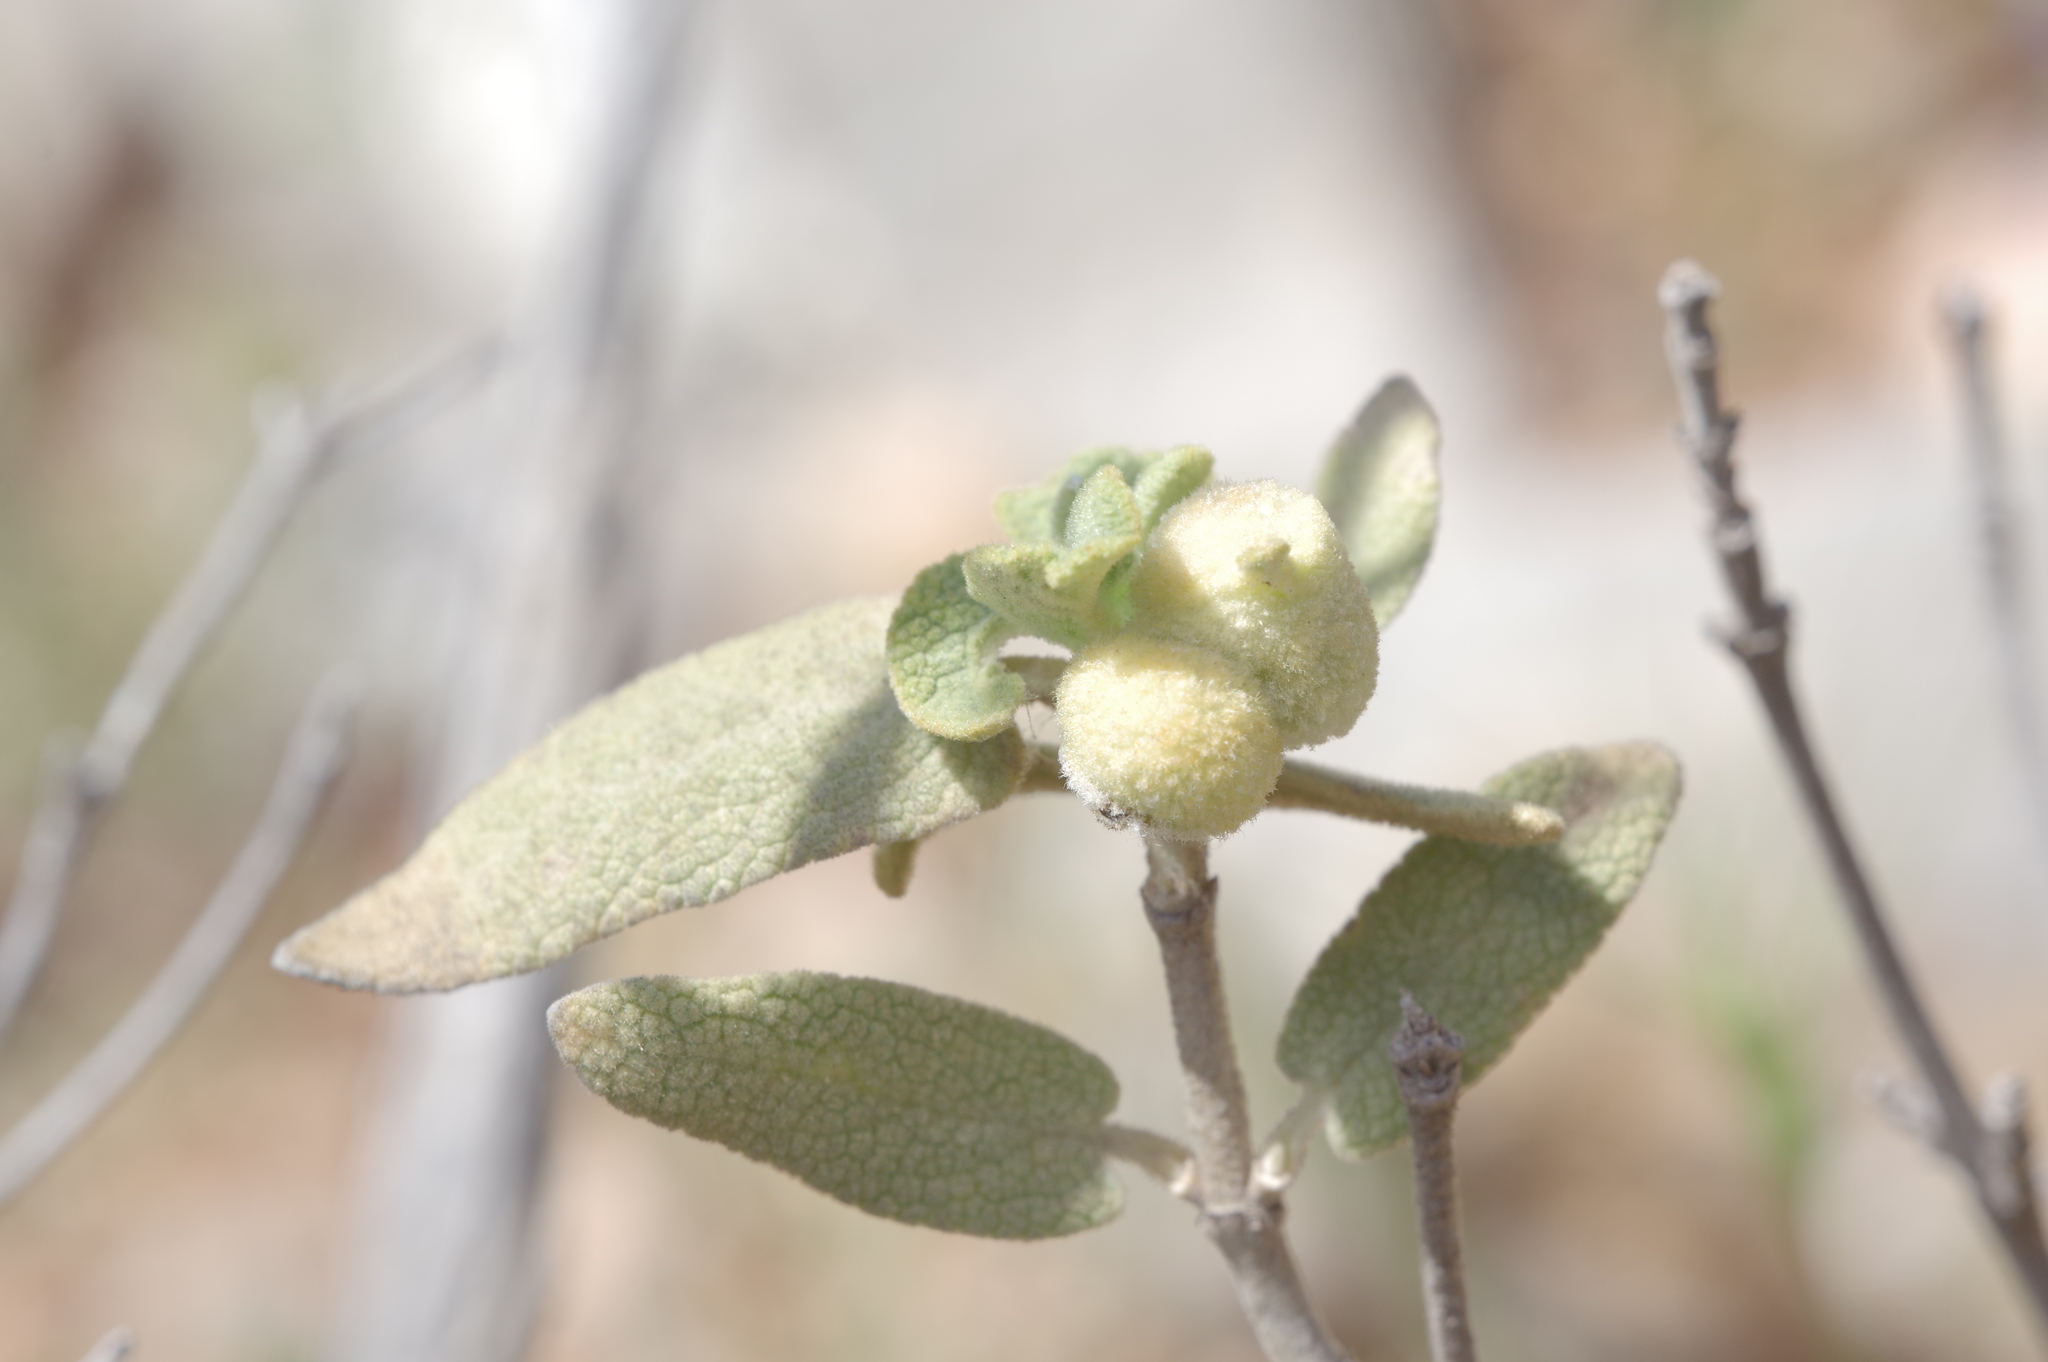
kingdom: Animalia
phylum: Arthropoda
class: Insecta
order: Diptera
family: Cecidomyiidae
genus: Asphondylia
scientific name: Asphondylia phlomidis
